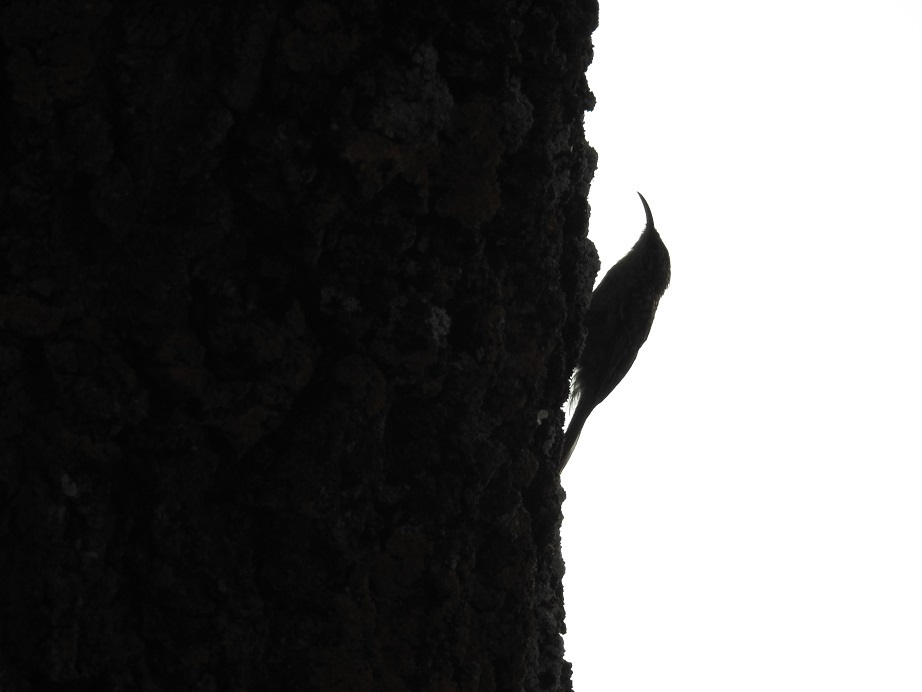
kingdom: Animalia
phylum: Chordata
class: Aves
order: Passeriformes
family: Certhiidae
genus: Certhia
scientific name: Certhia brachydactyla
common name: Short-toed treecreeper
